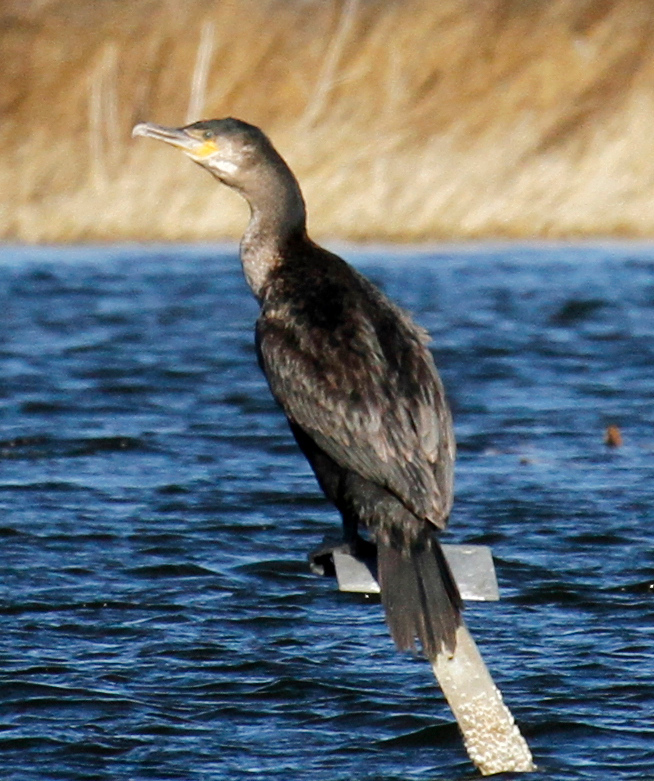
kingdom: Animalia
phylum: Chordata
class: Aves
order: Suliformes
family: Phalacrocoracidae
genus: Phalacrocorax
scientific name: Phalacrocorax carbo
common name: Great cormorant
